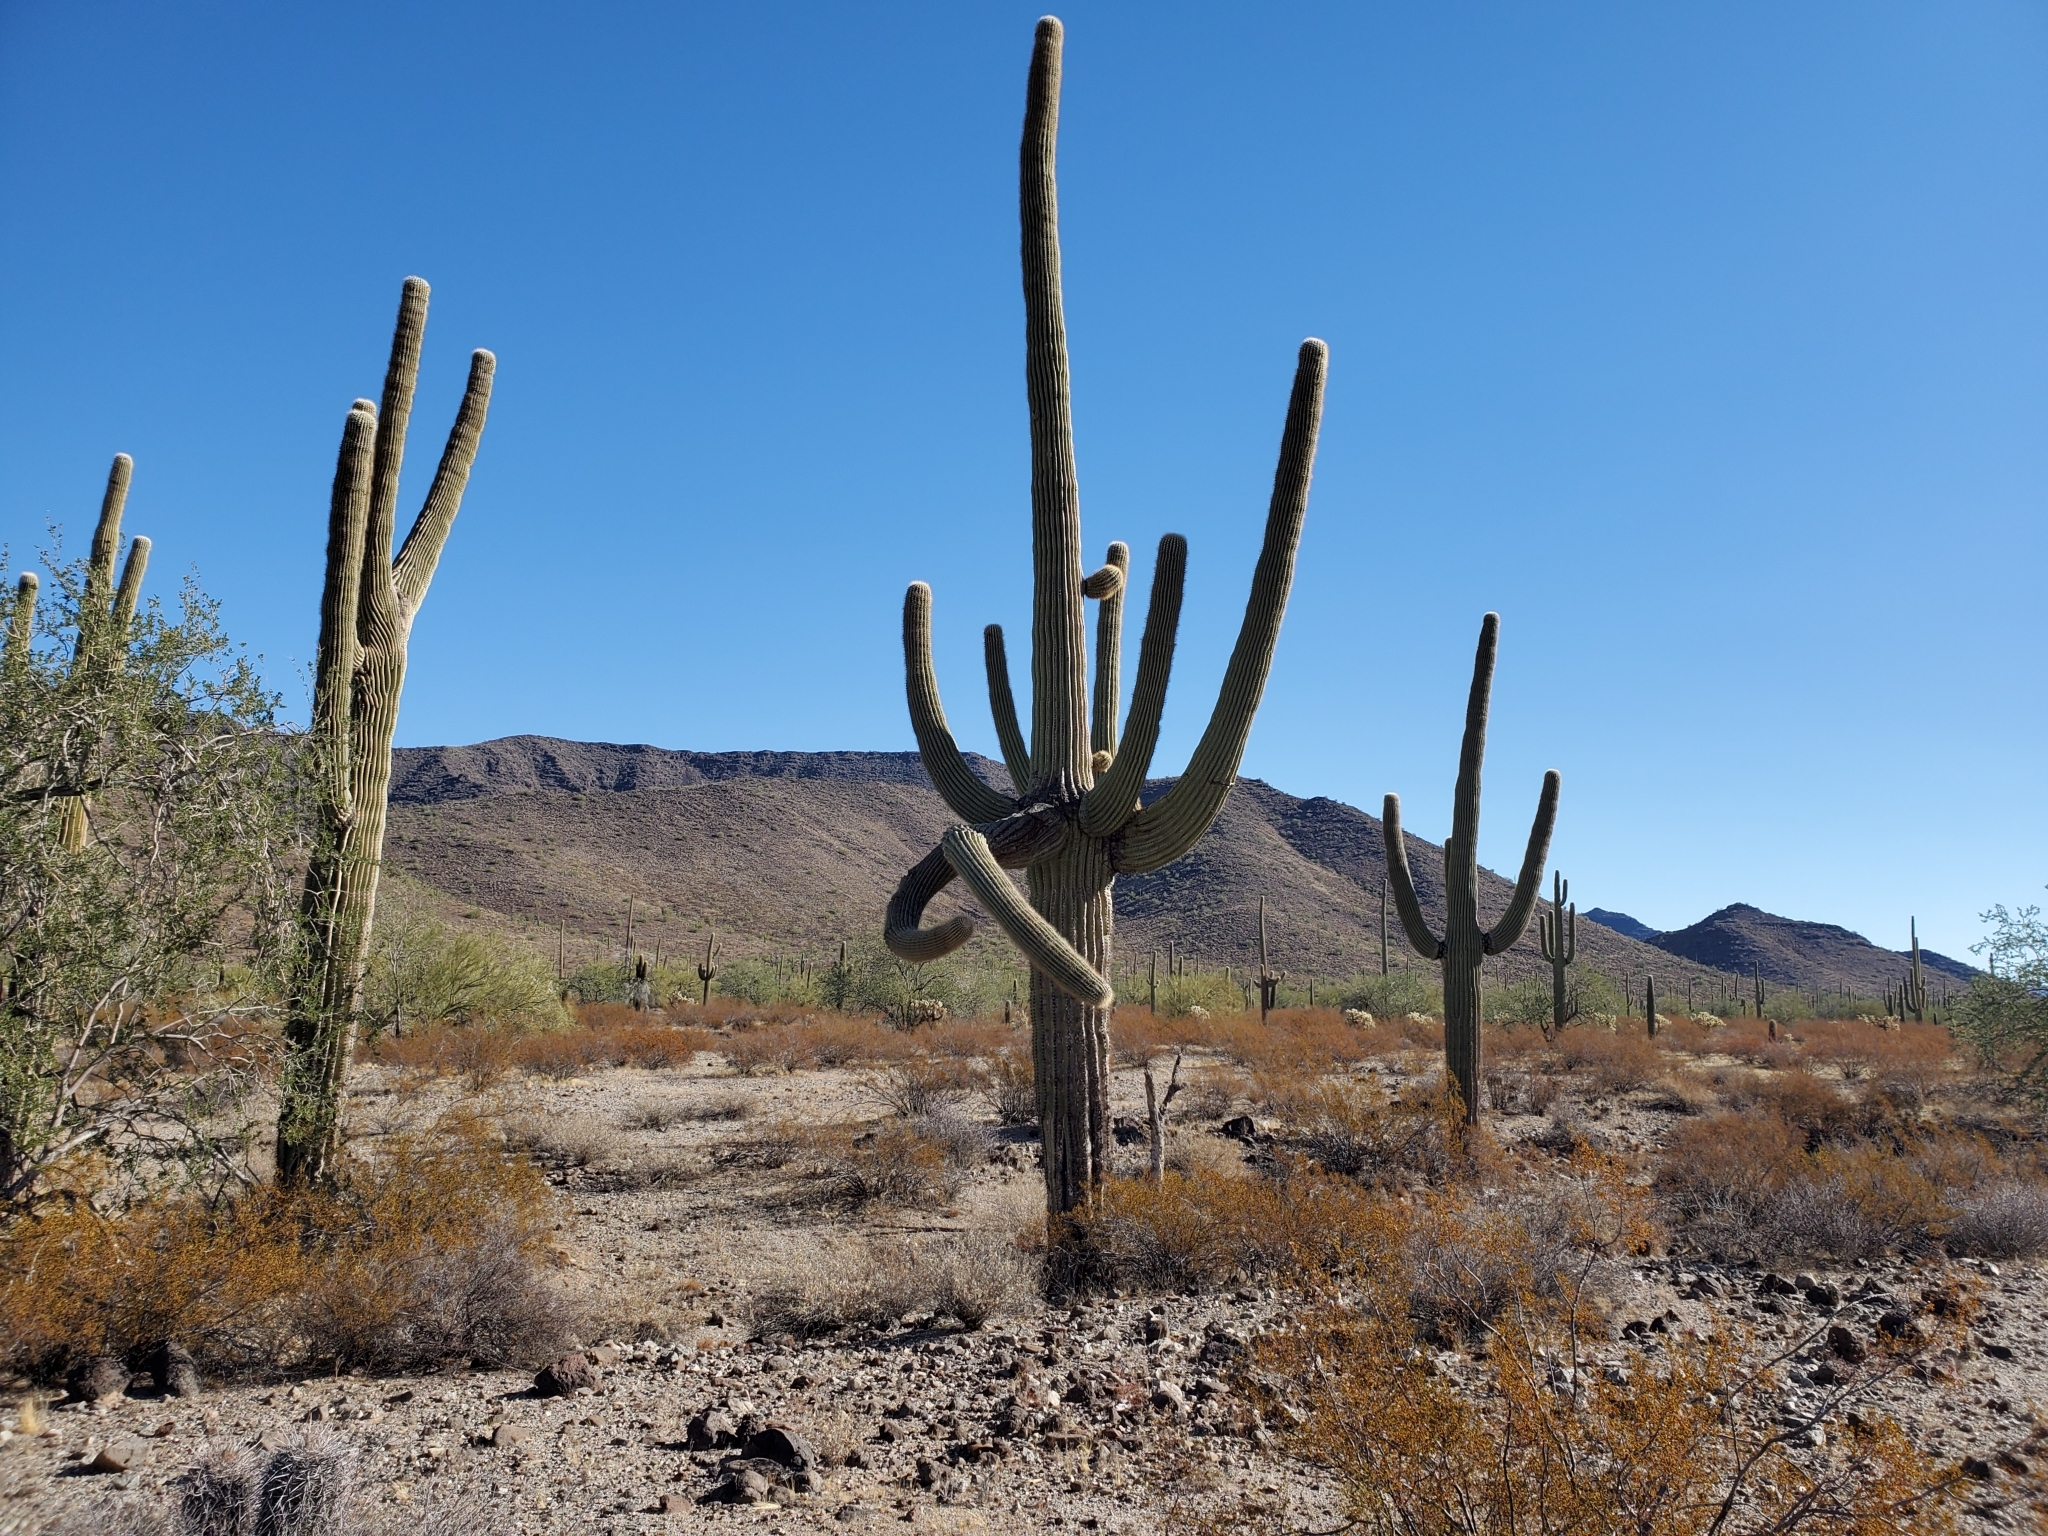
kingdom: Plantae
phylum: Tracheophyta
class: Magnoliopsida
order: Caryophyllales
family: Cactaceae
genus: Carnegiea
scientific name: Carnegiea gigantea
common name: Saguaro
